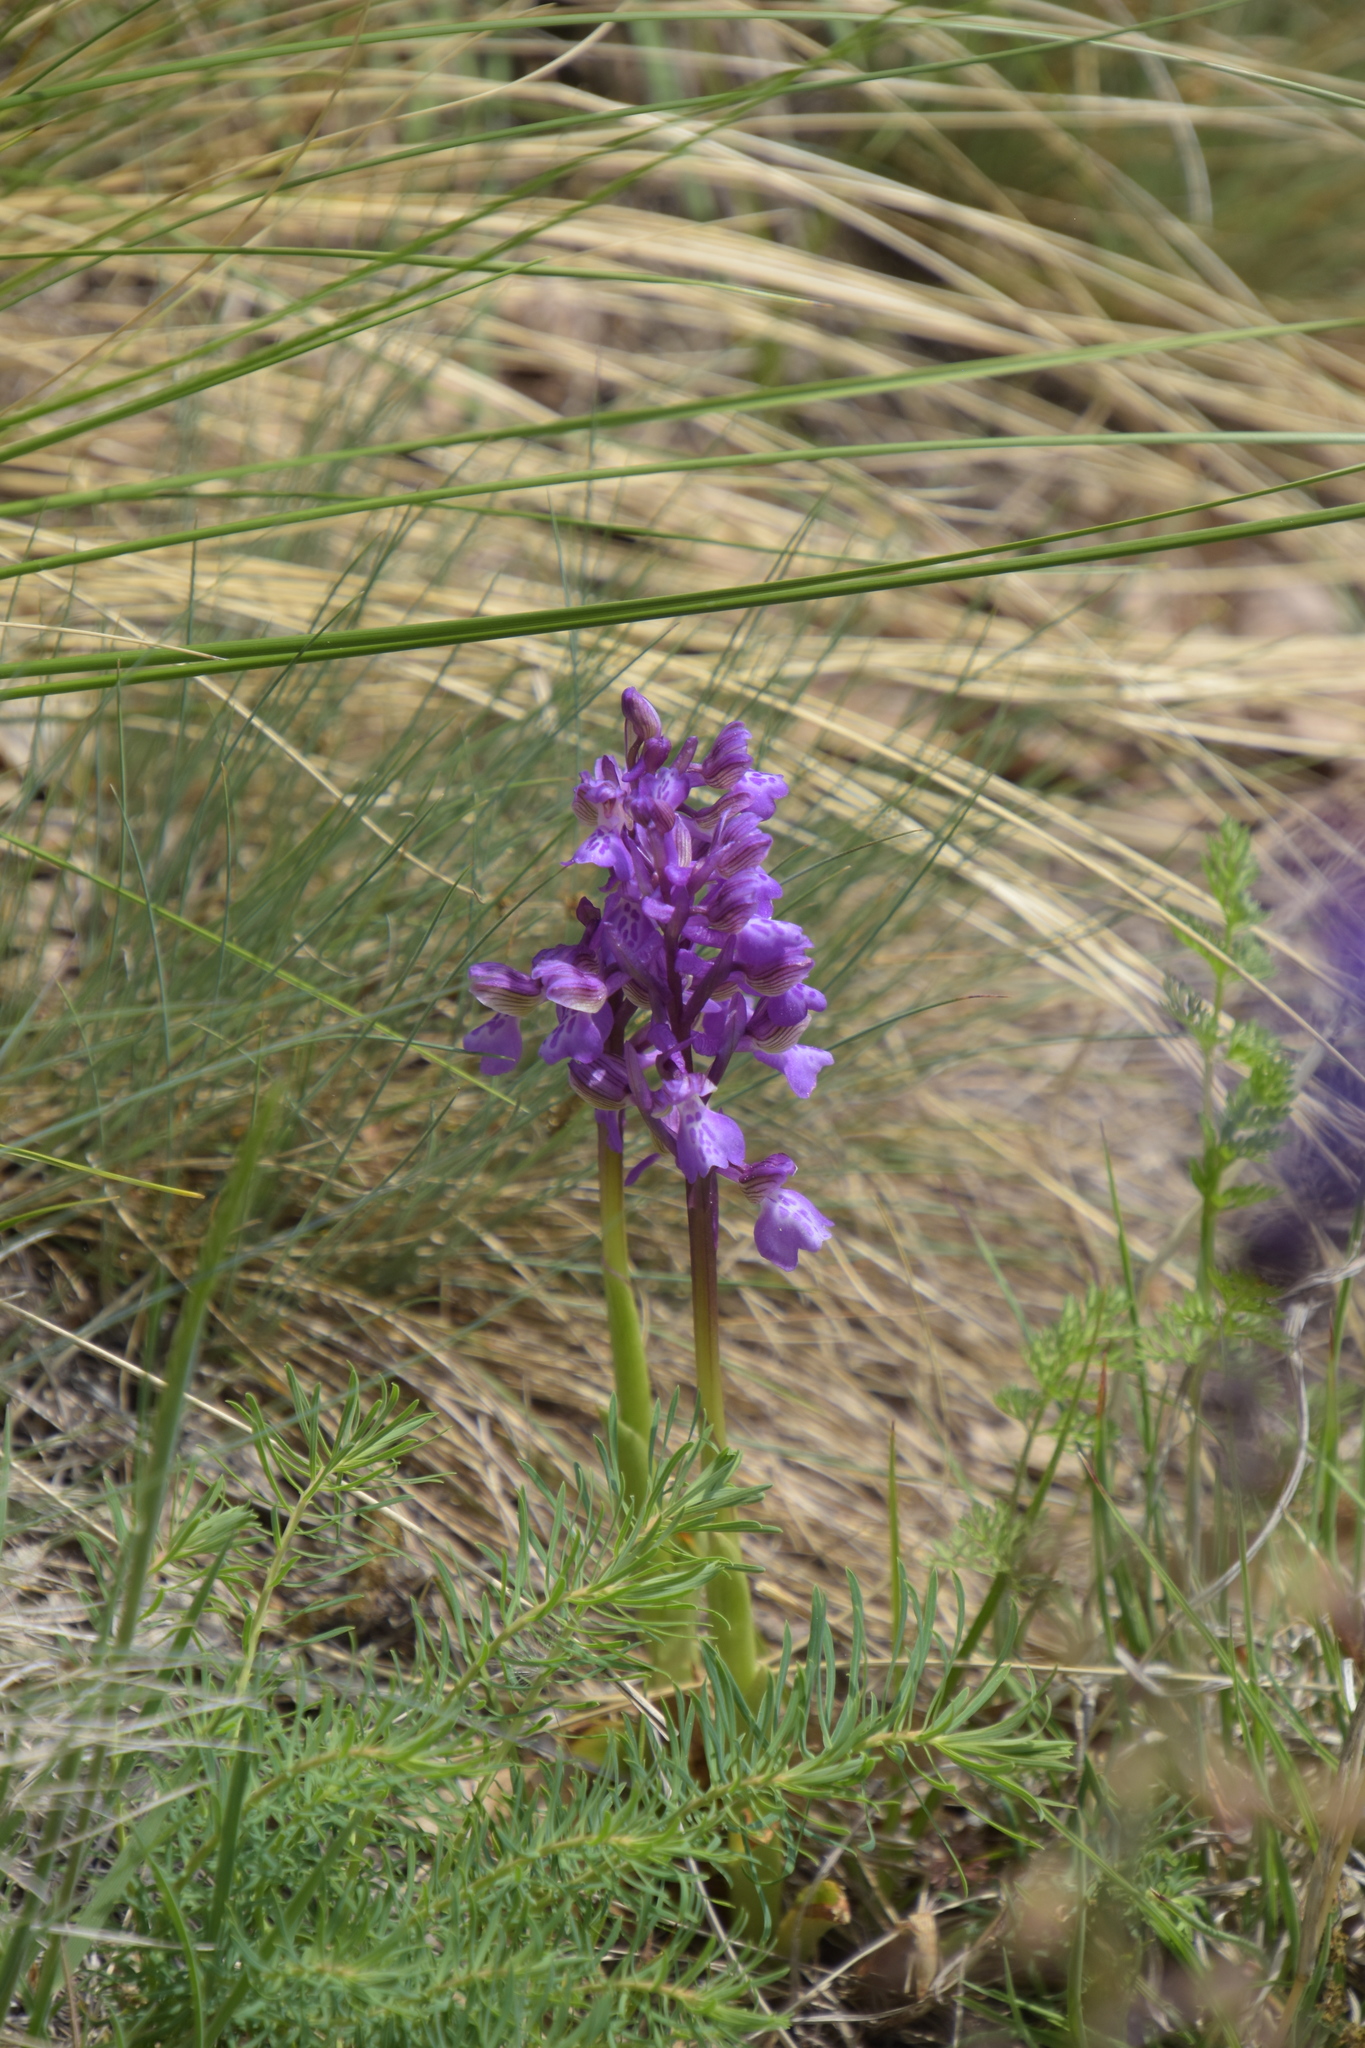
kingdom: Plantae
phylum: Tracheophyta
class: Liliopsida
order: Asparagales
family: Orchidaceae
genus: Anacamptis
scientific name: Anacamptis morio
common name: Green-winged orchid
